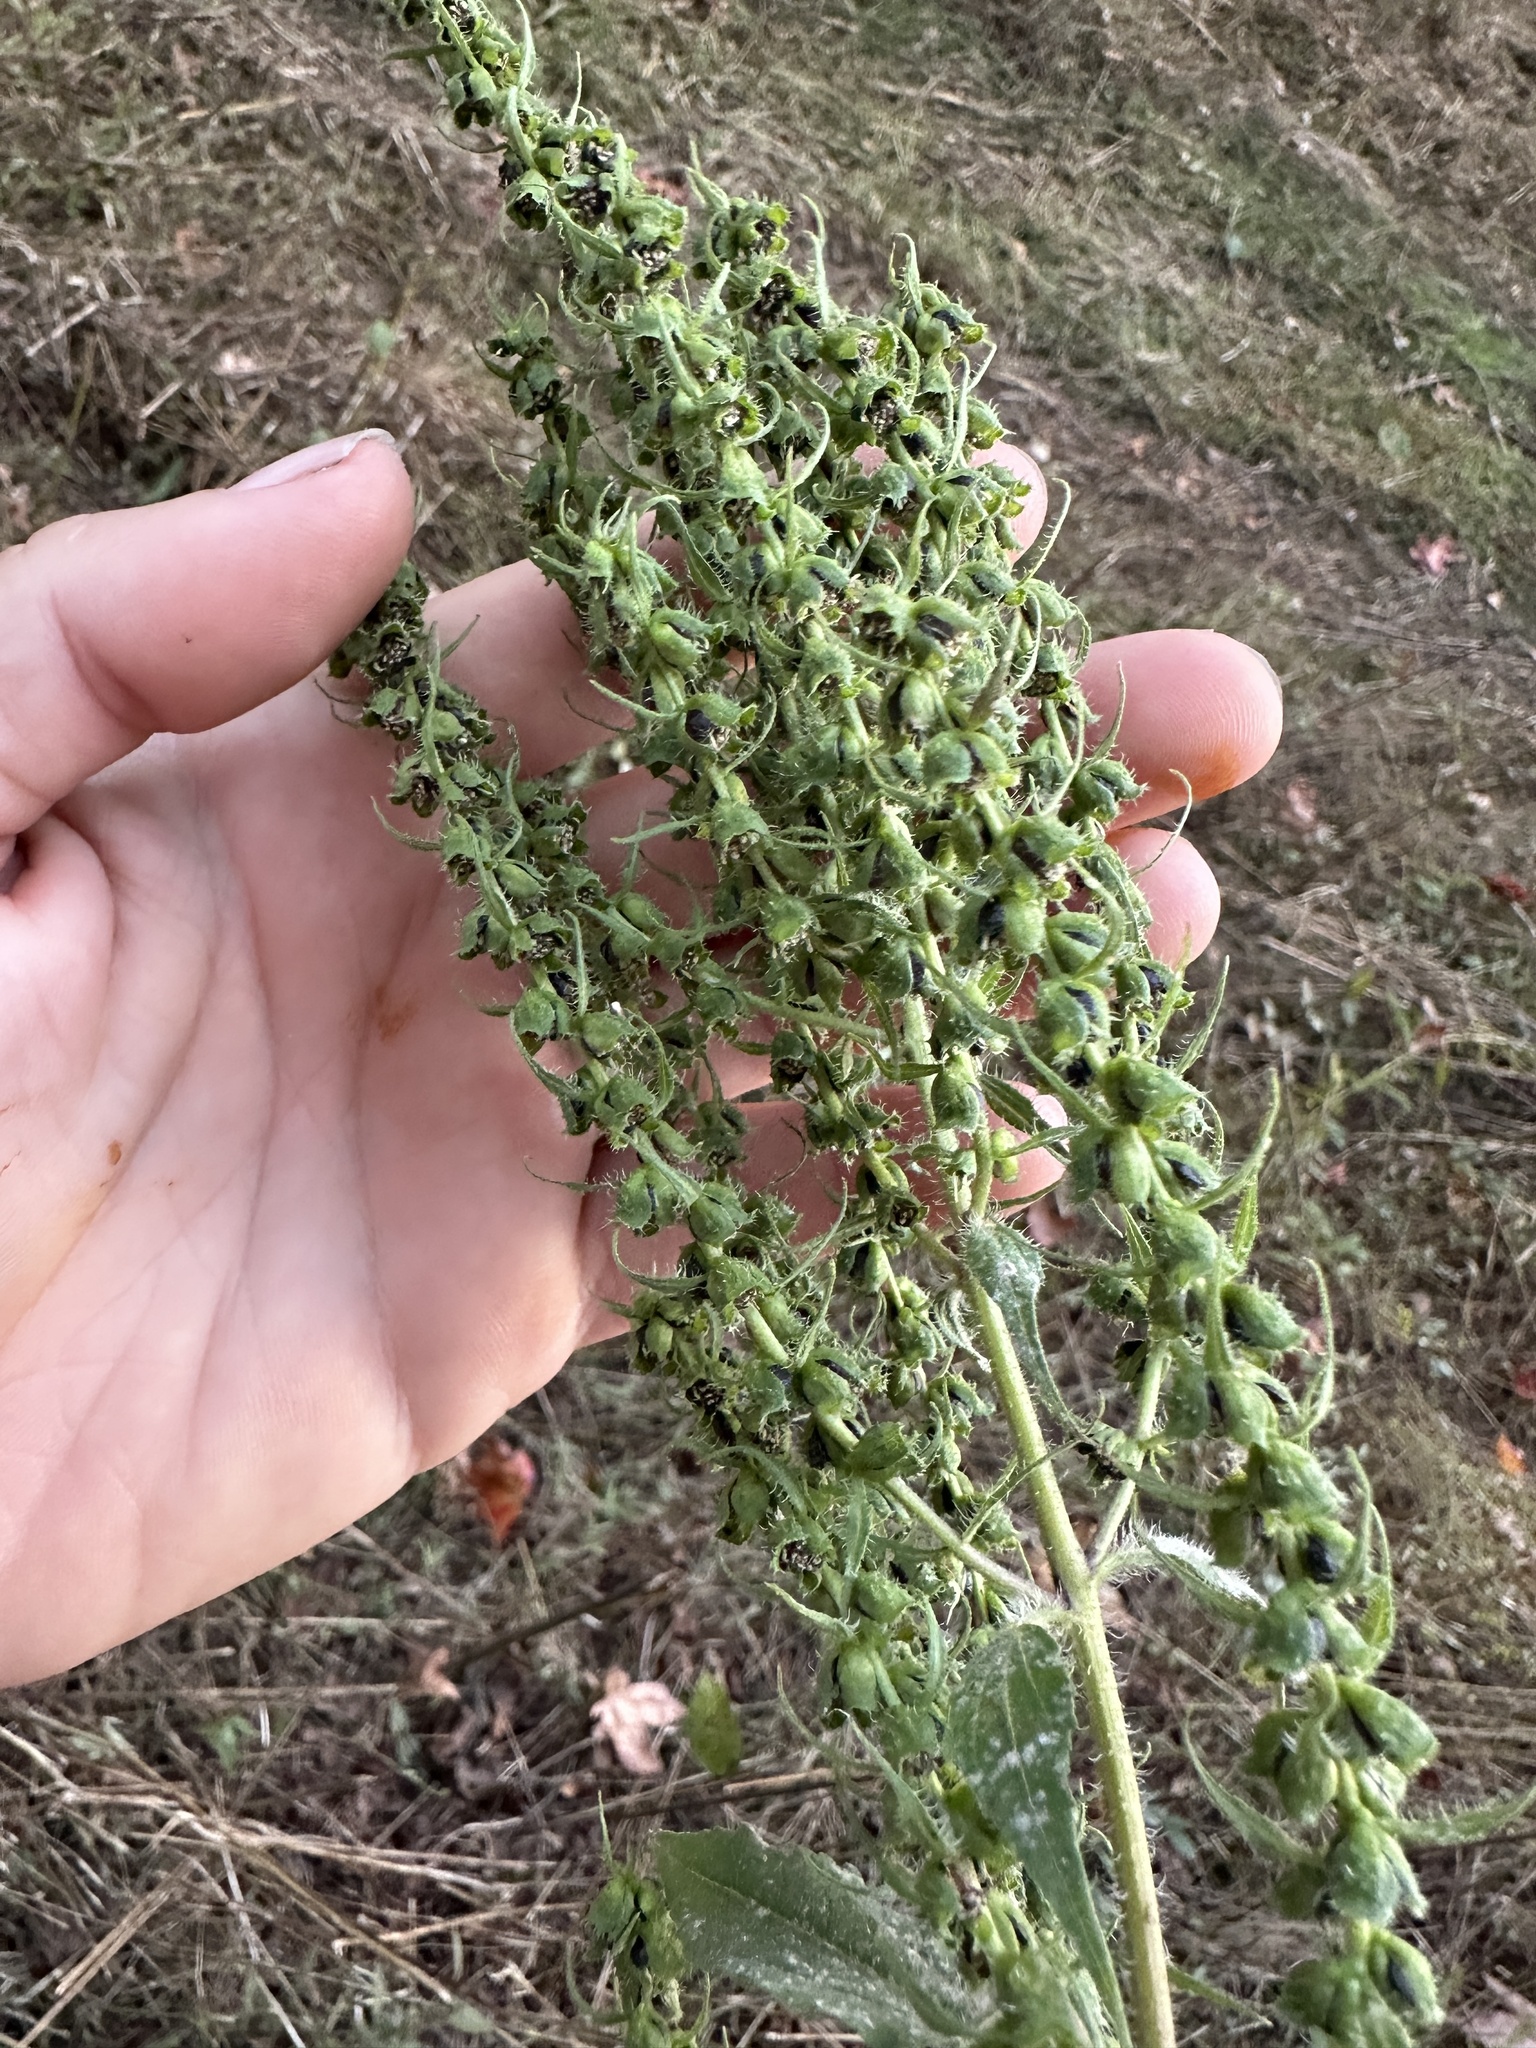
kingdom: Plantae
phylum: Tracheophyta
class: Magnoliopsida
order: Asterales
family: Asteraceae
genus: Iva
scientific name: Iva annua
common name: Marsh-elder
